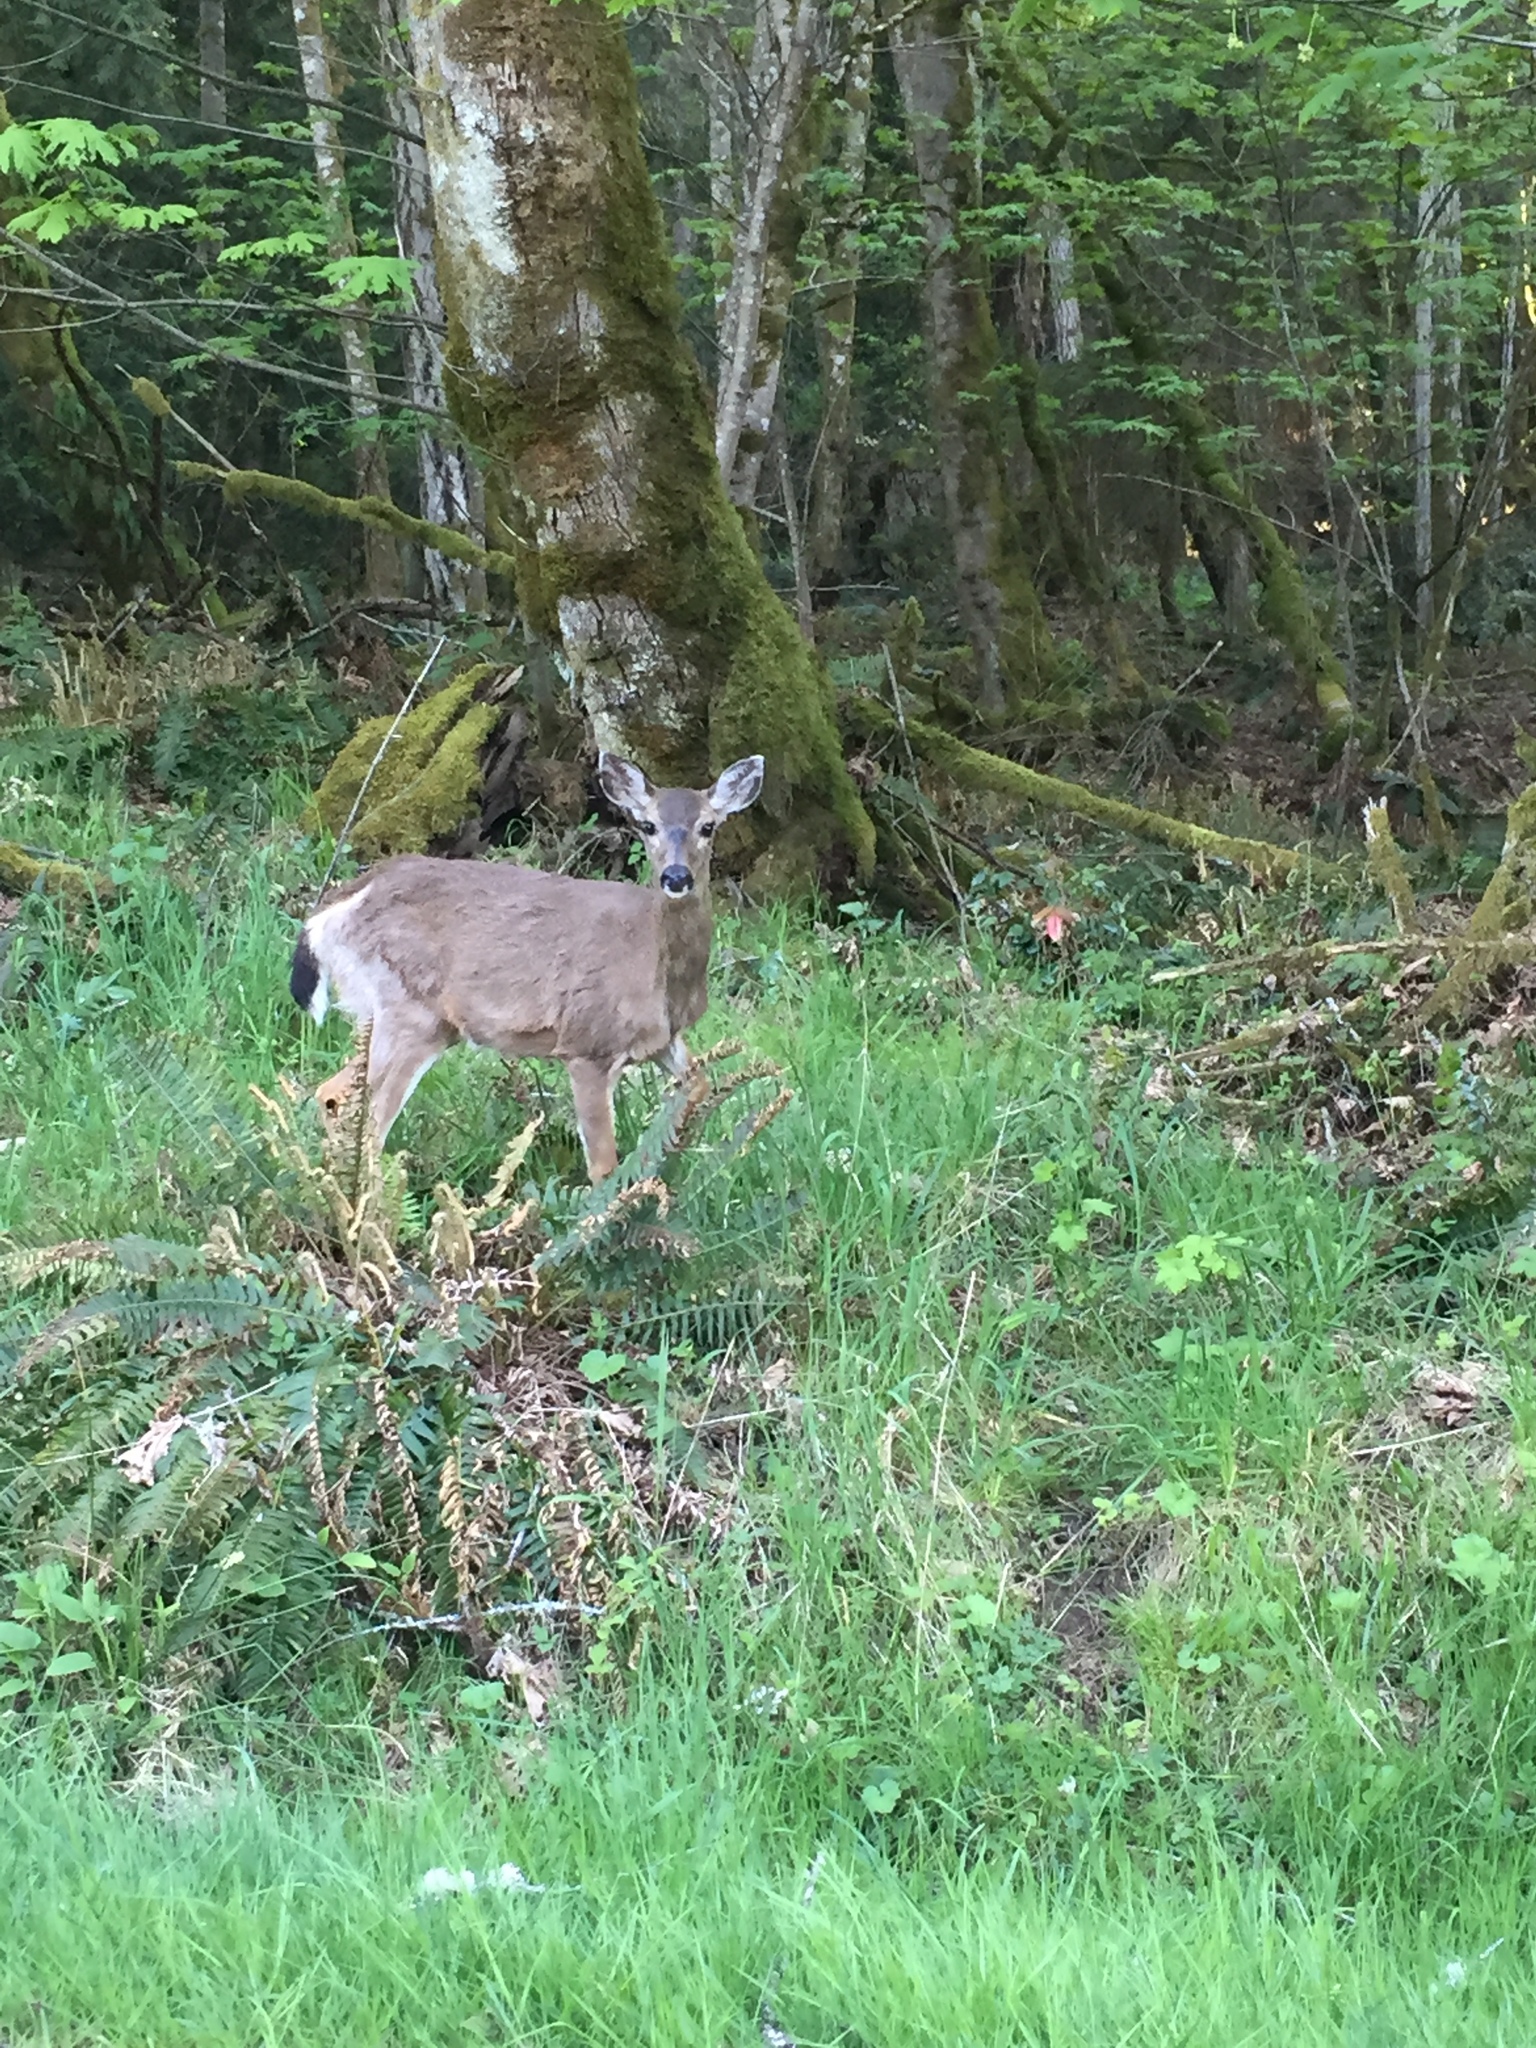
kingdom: Animalia
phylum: Chordata
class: Mammalia
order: Artiodactyla
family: Cervidae
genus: Odocoileus
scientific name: Odocoileus hemionus
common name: Mule deer
